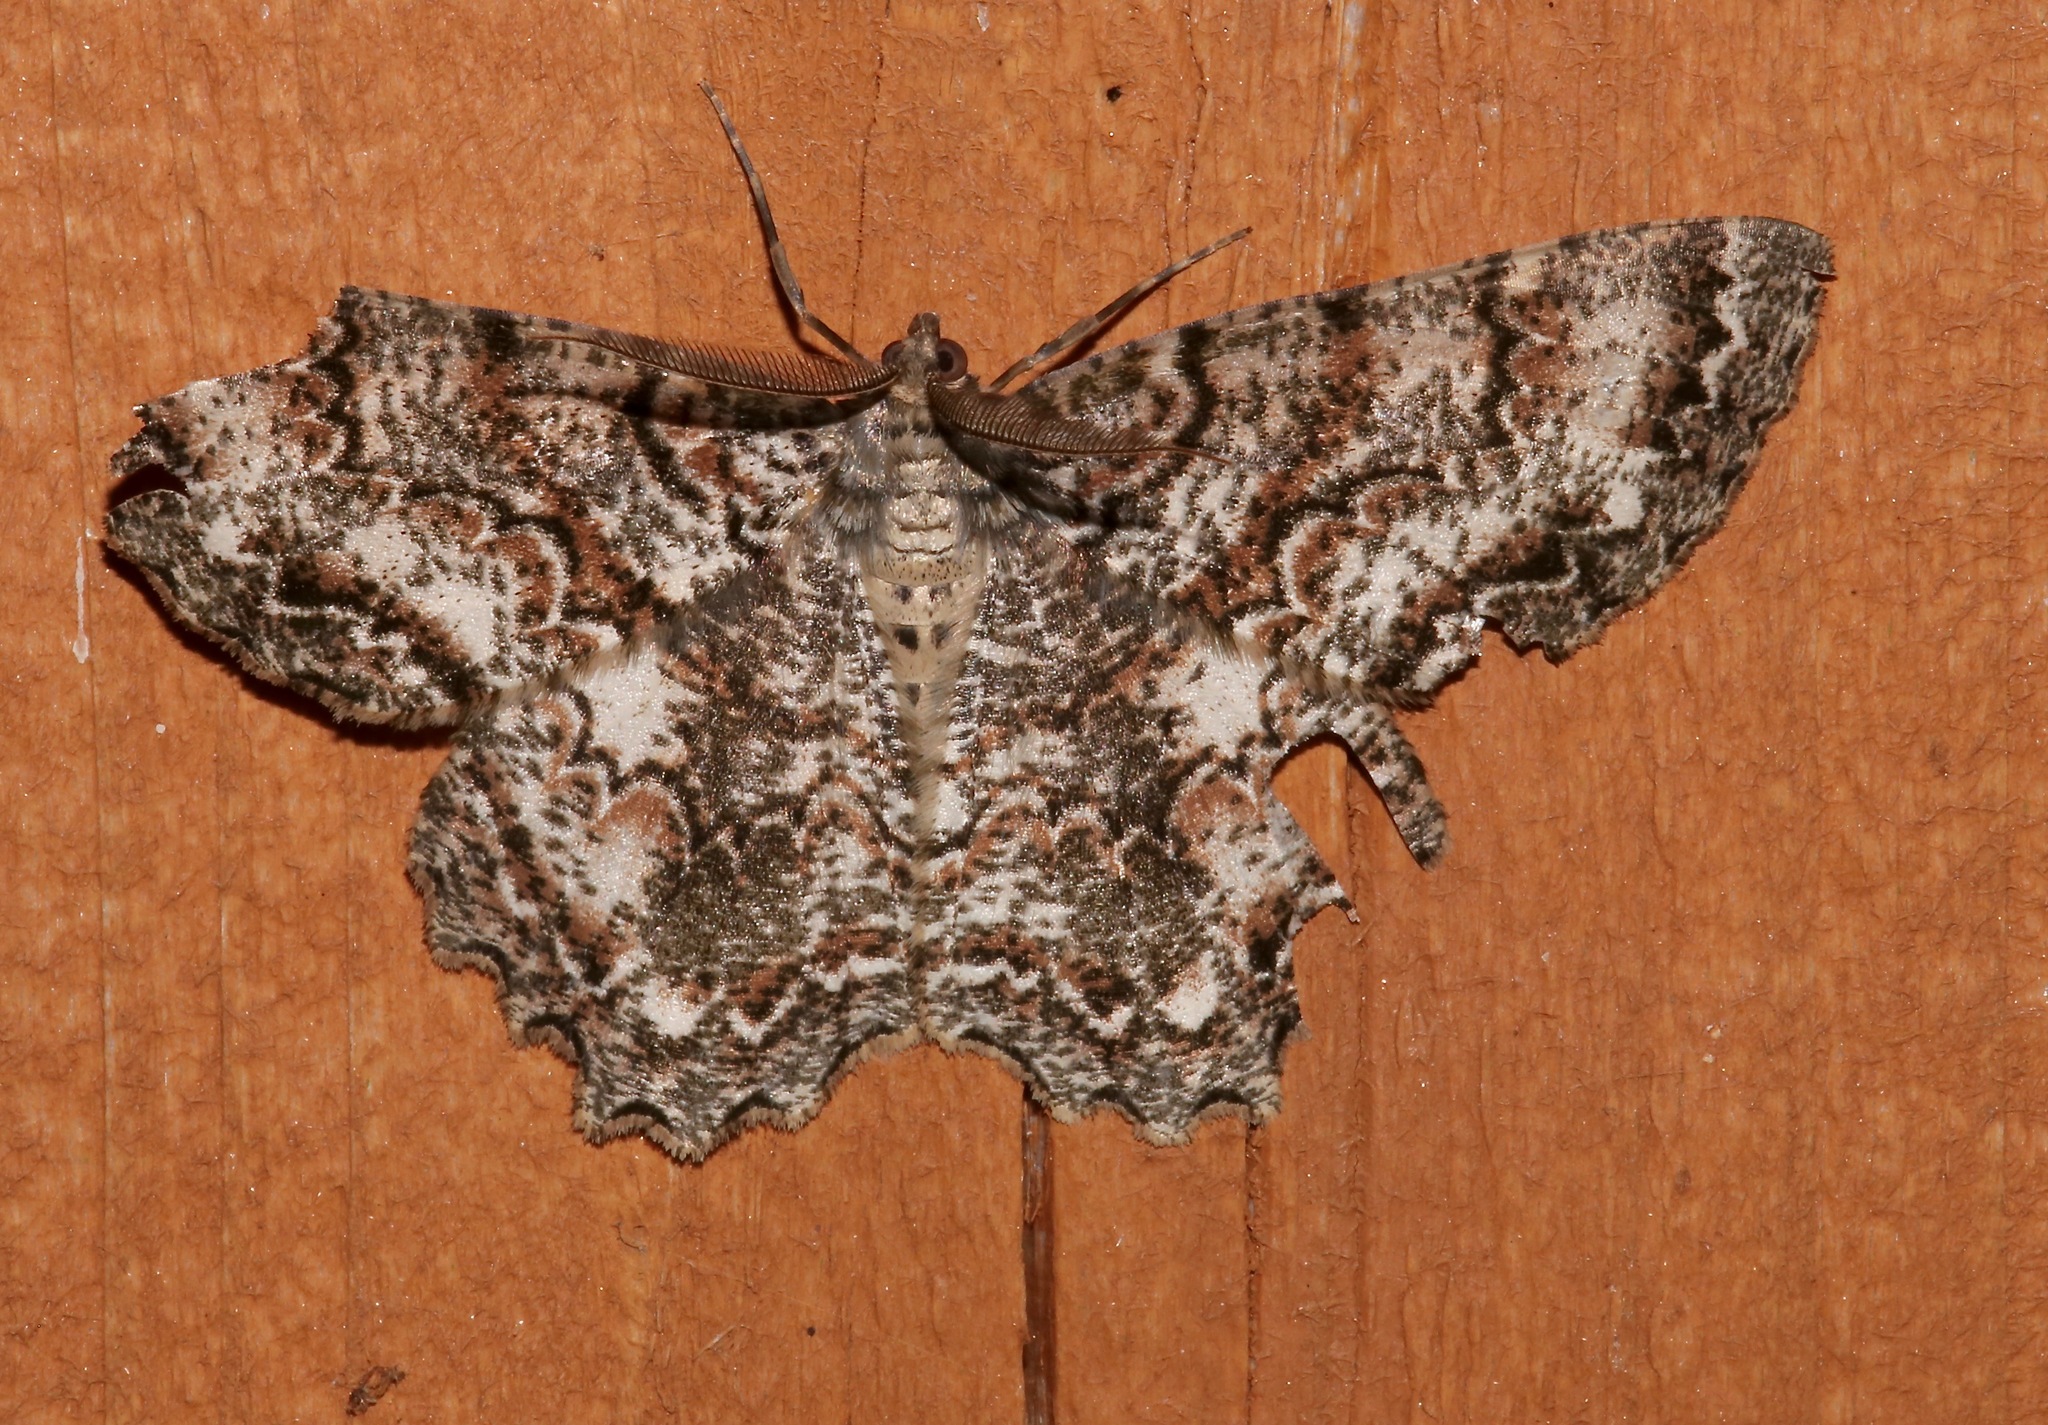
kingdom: Animalia
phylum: Arthropoda
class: Insecta
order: Lepidoptera
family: Geometridae
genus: Epimecis
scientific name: Epimecis hortaria
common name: Tulip-tree beauty
